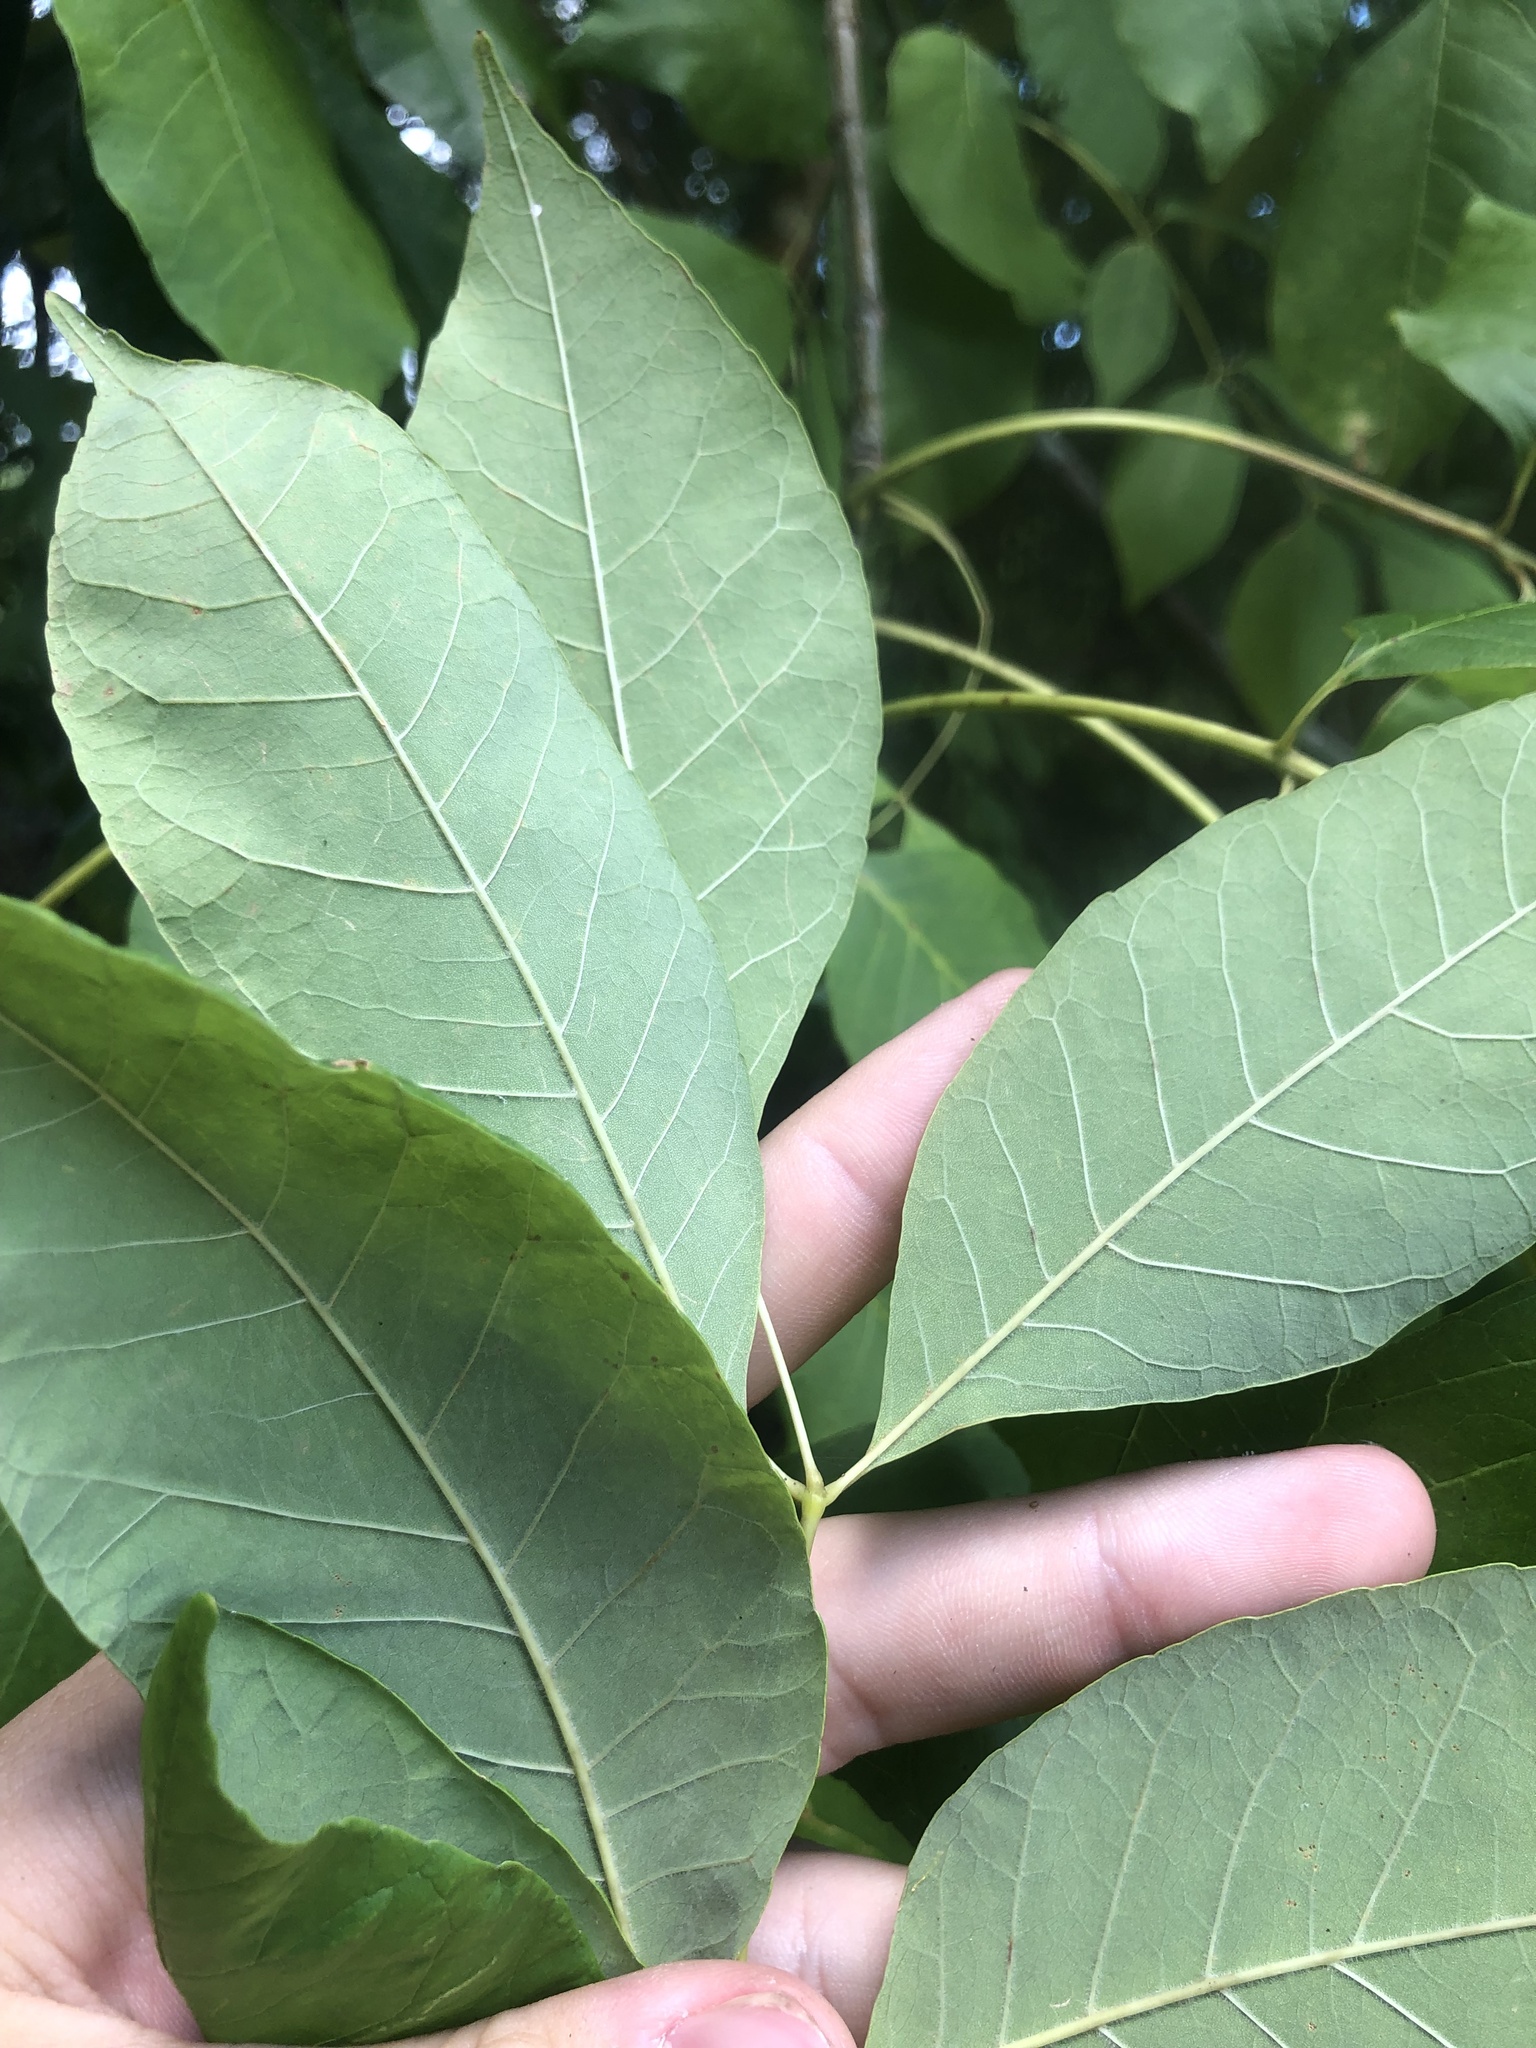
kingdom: Plantae
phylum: Tracheophyta
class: Magnoliopsida
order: Lamiales
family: Oleaceae
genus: Fraxinus
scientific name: Fraxinus americana
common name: White ash
